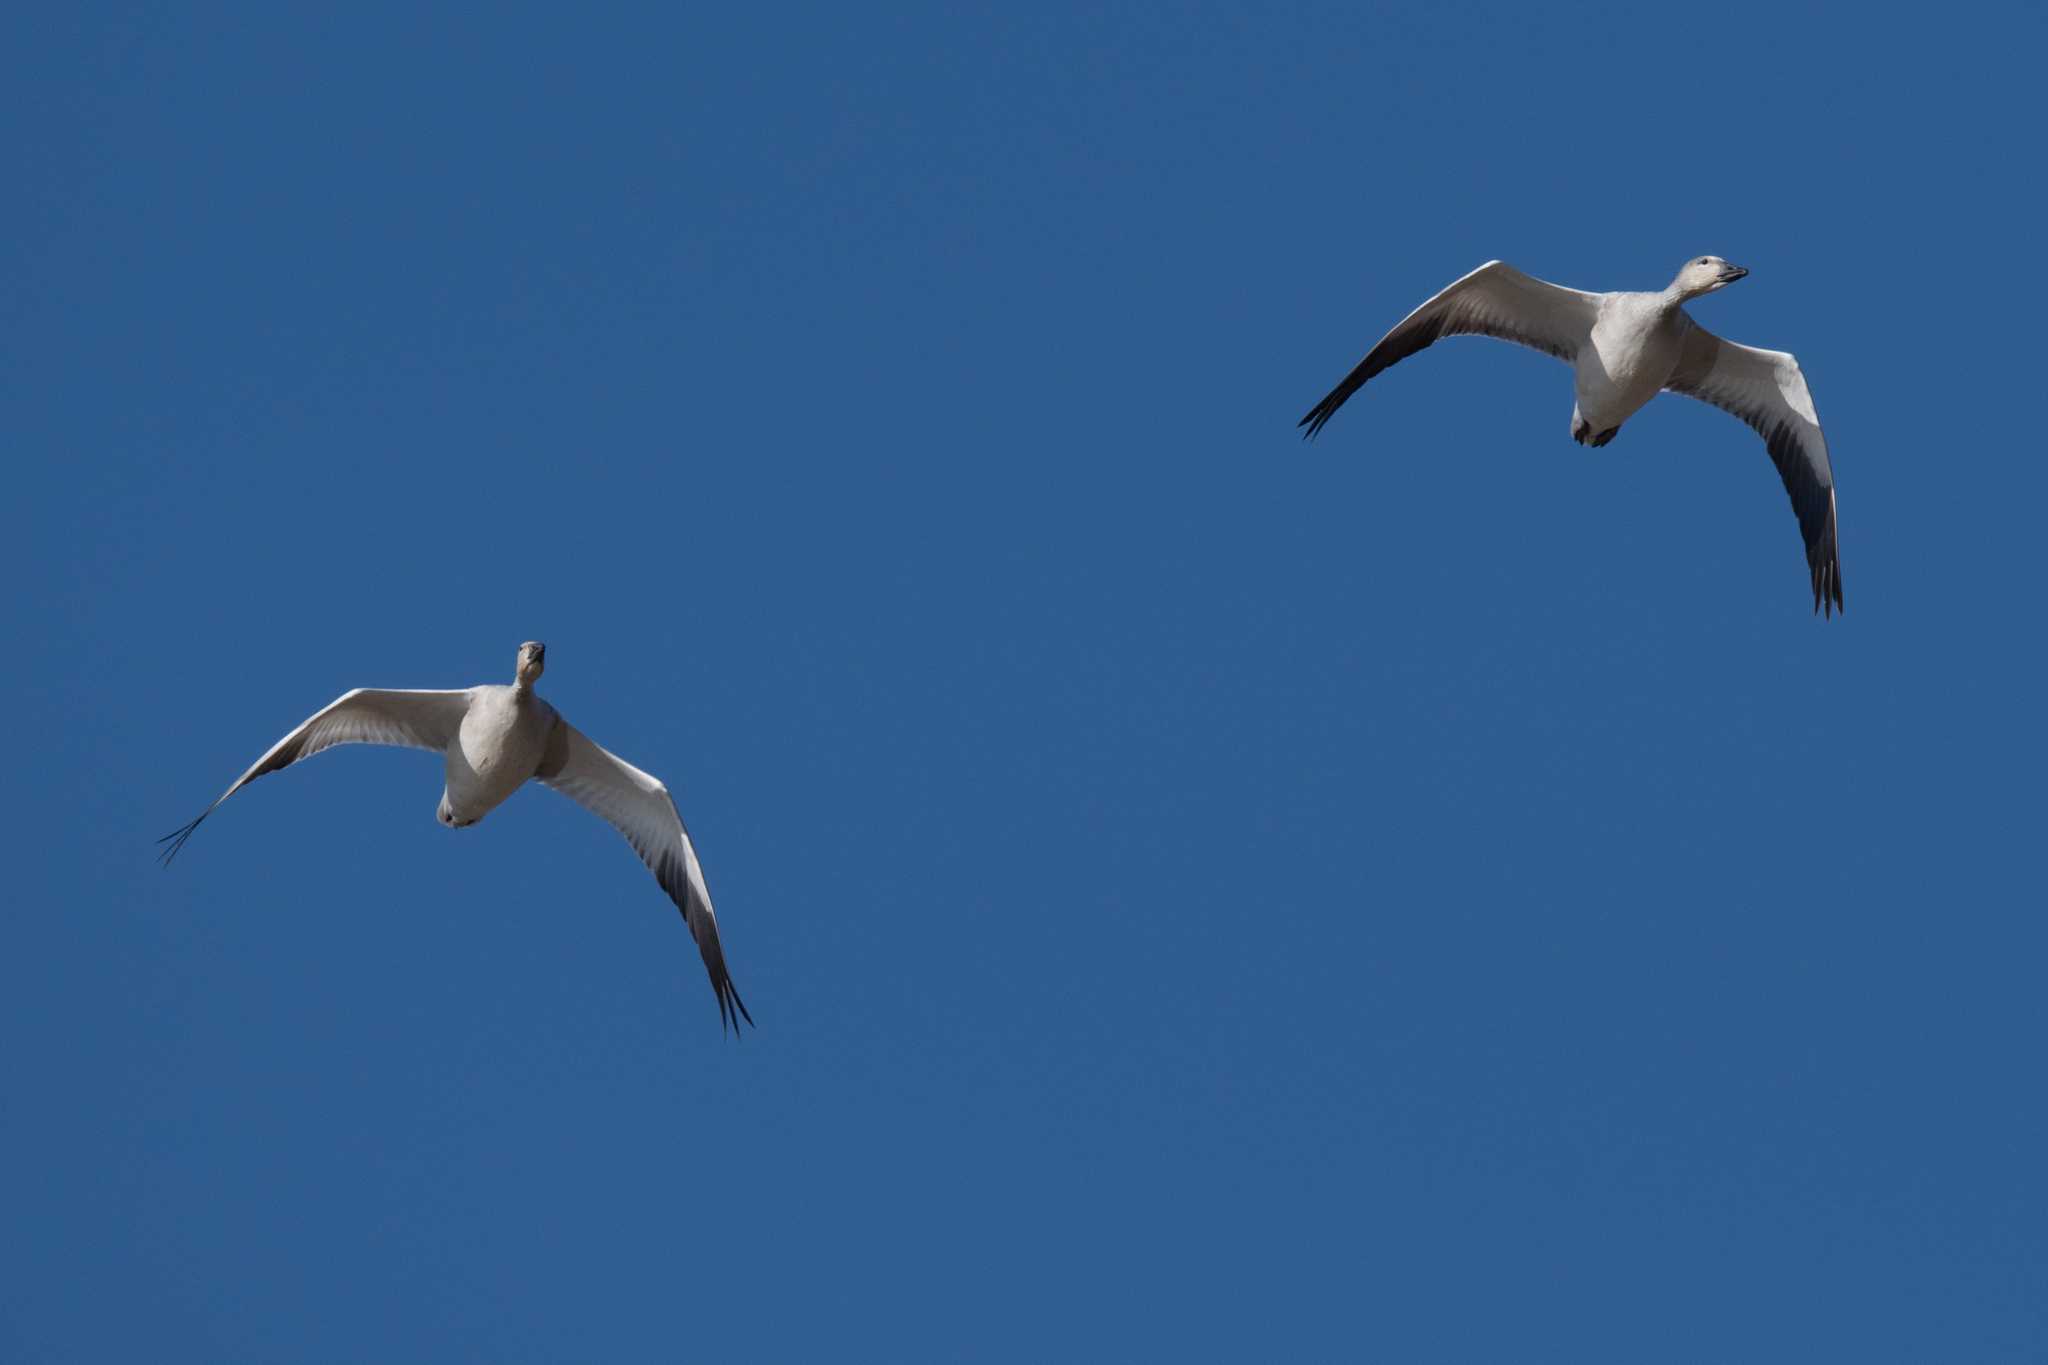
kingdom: Animalia
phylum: Chordata
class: Aves
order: Anseriformes
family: Anatidae
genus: Anser
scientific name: Anser caerulescens
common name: Snow goose
